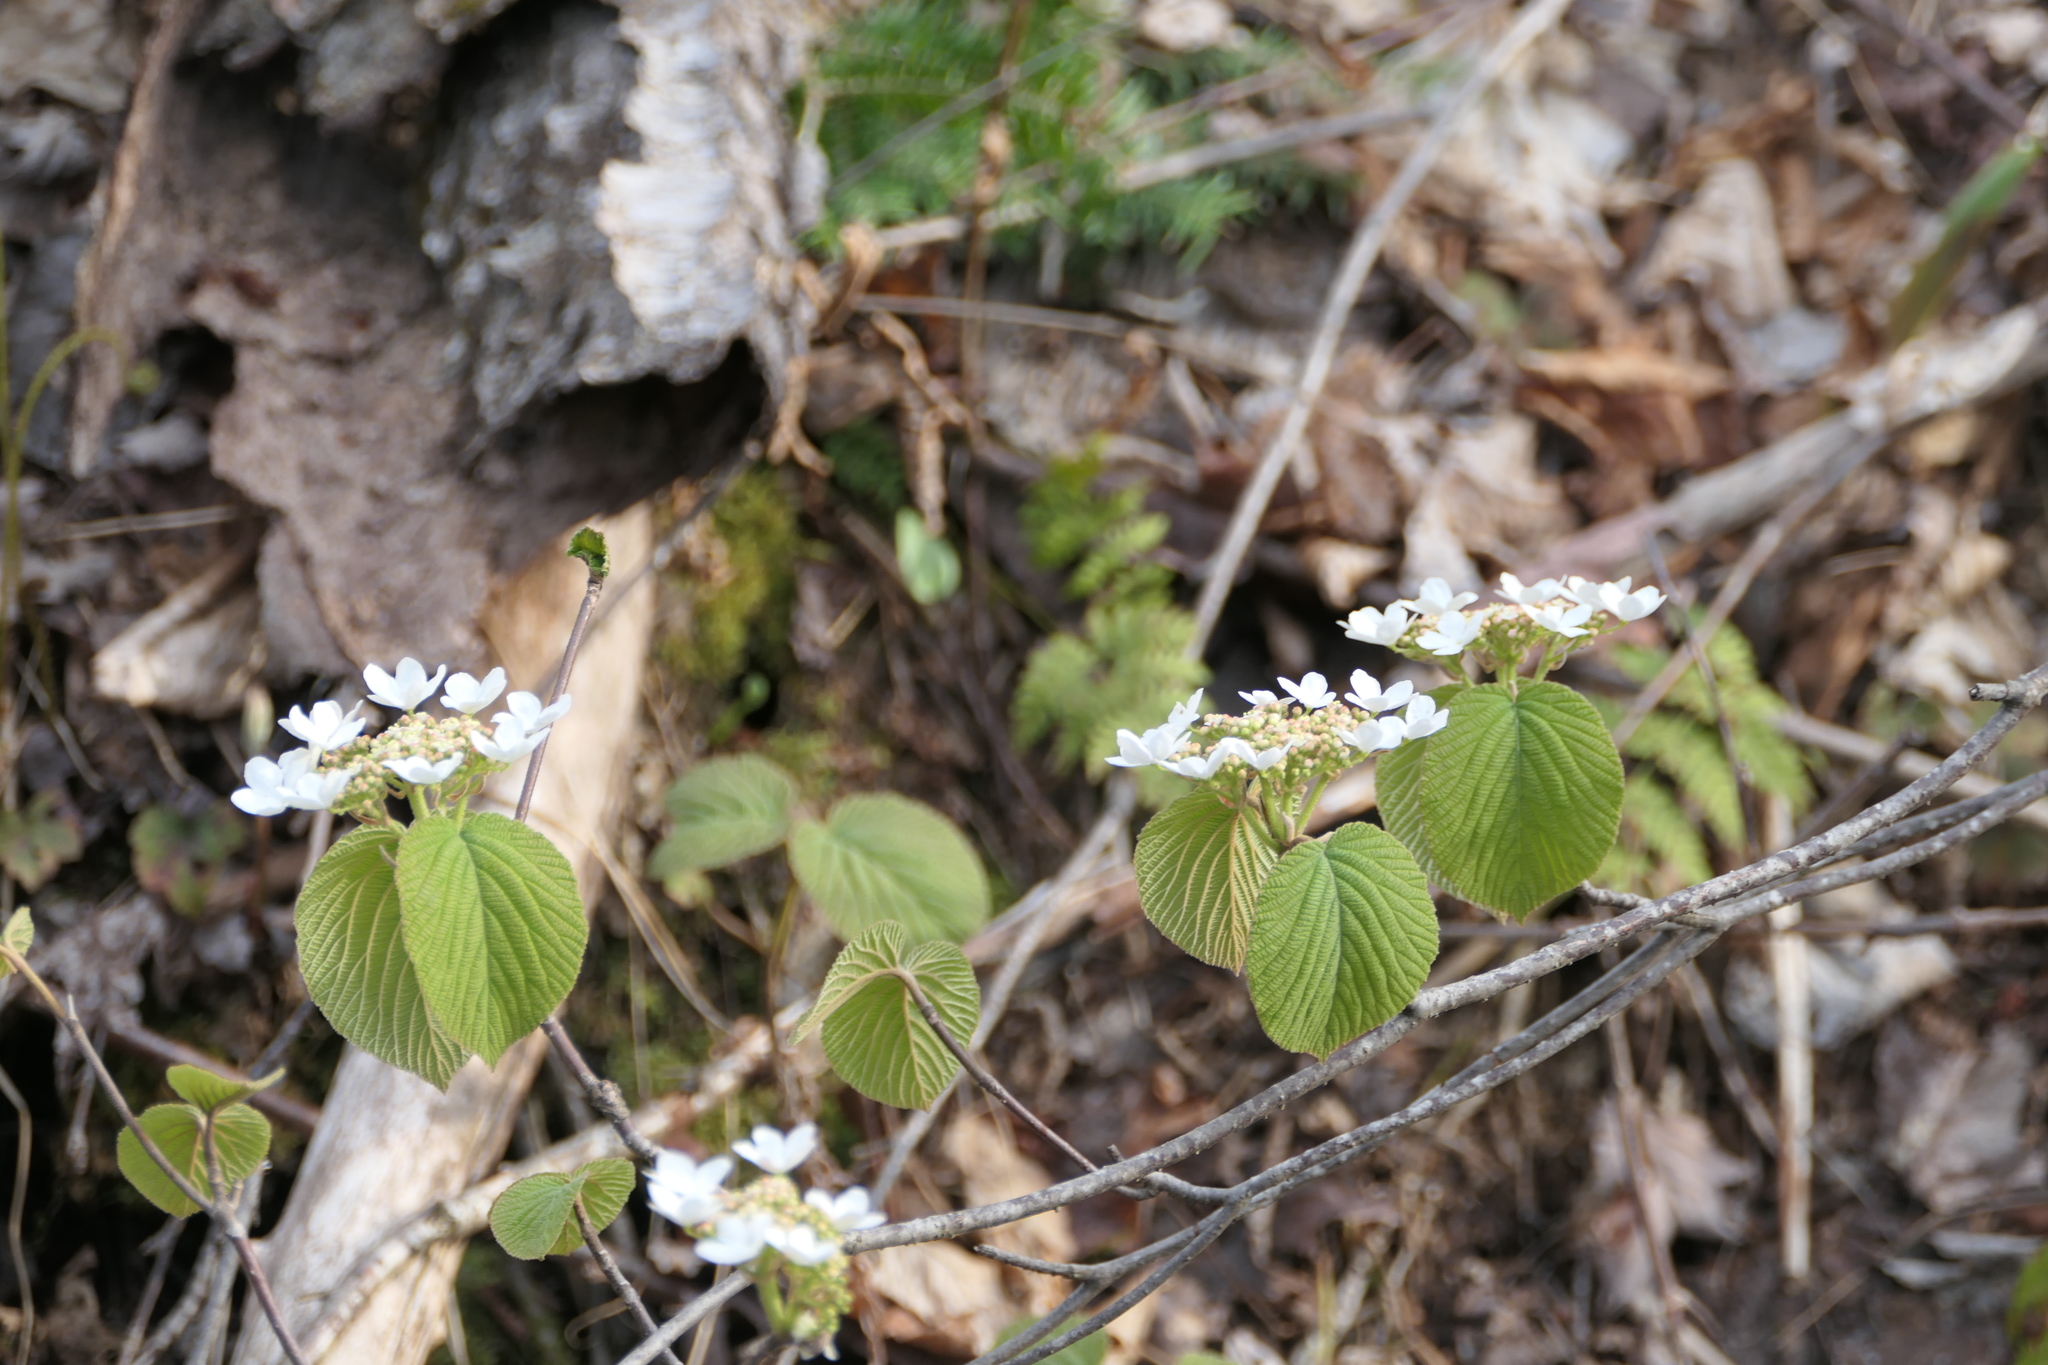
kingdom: Plantae
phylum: Tracheophyta
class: Magnoliopsida
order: Dipsacales
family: Viburnaceae
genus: Viburnum
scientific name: Viburnum lantanoides
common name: Hobblebush
